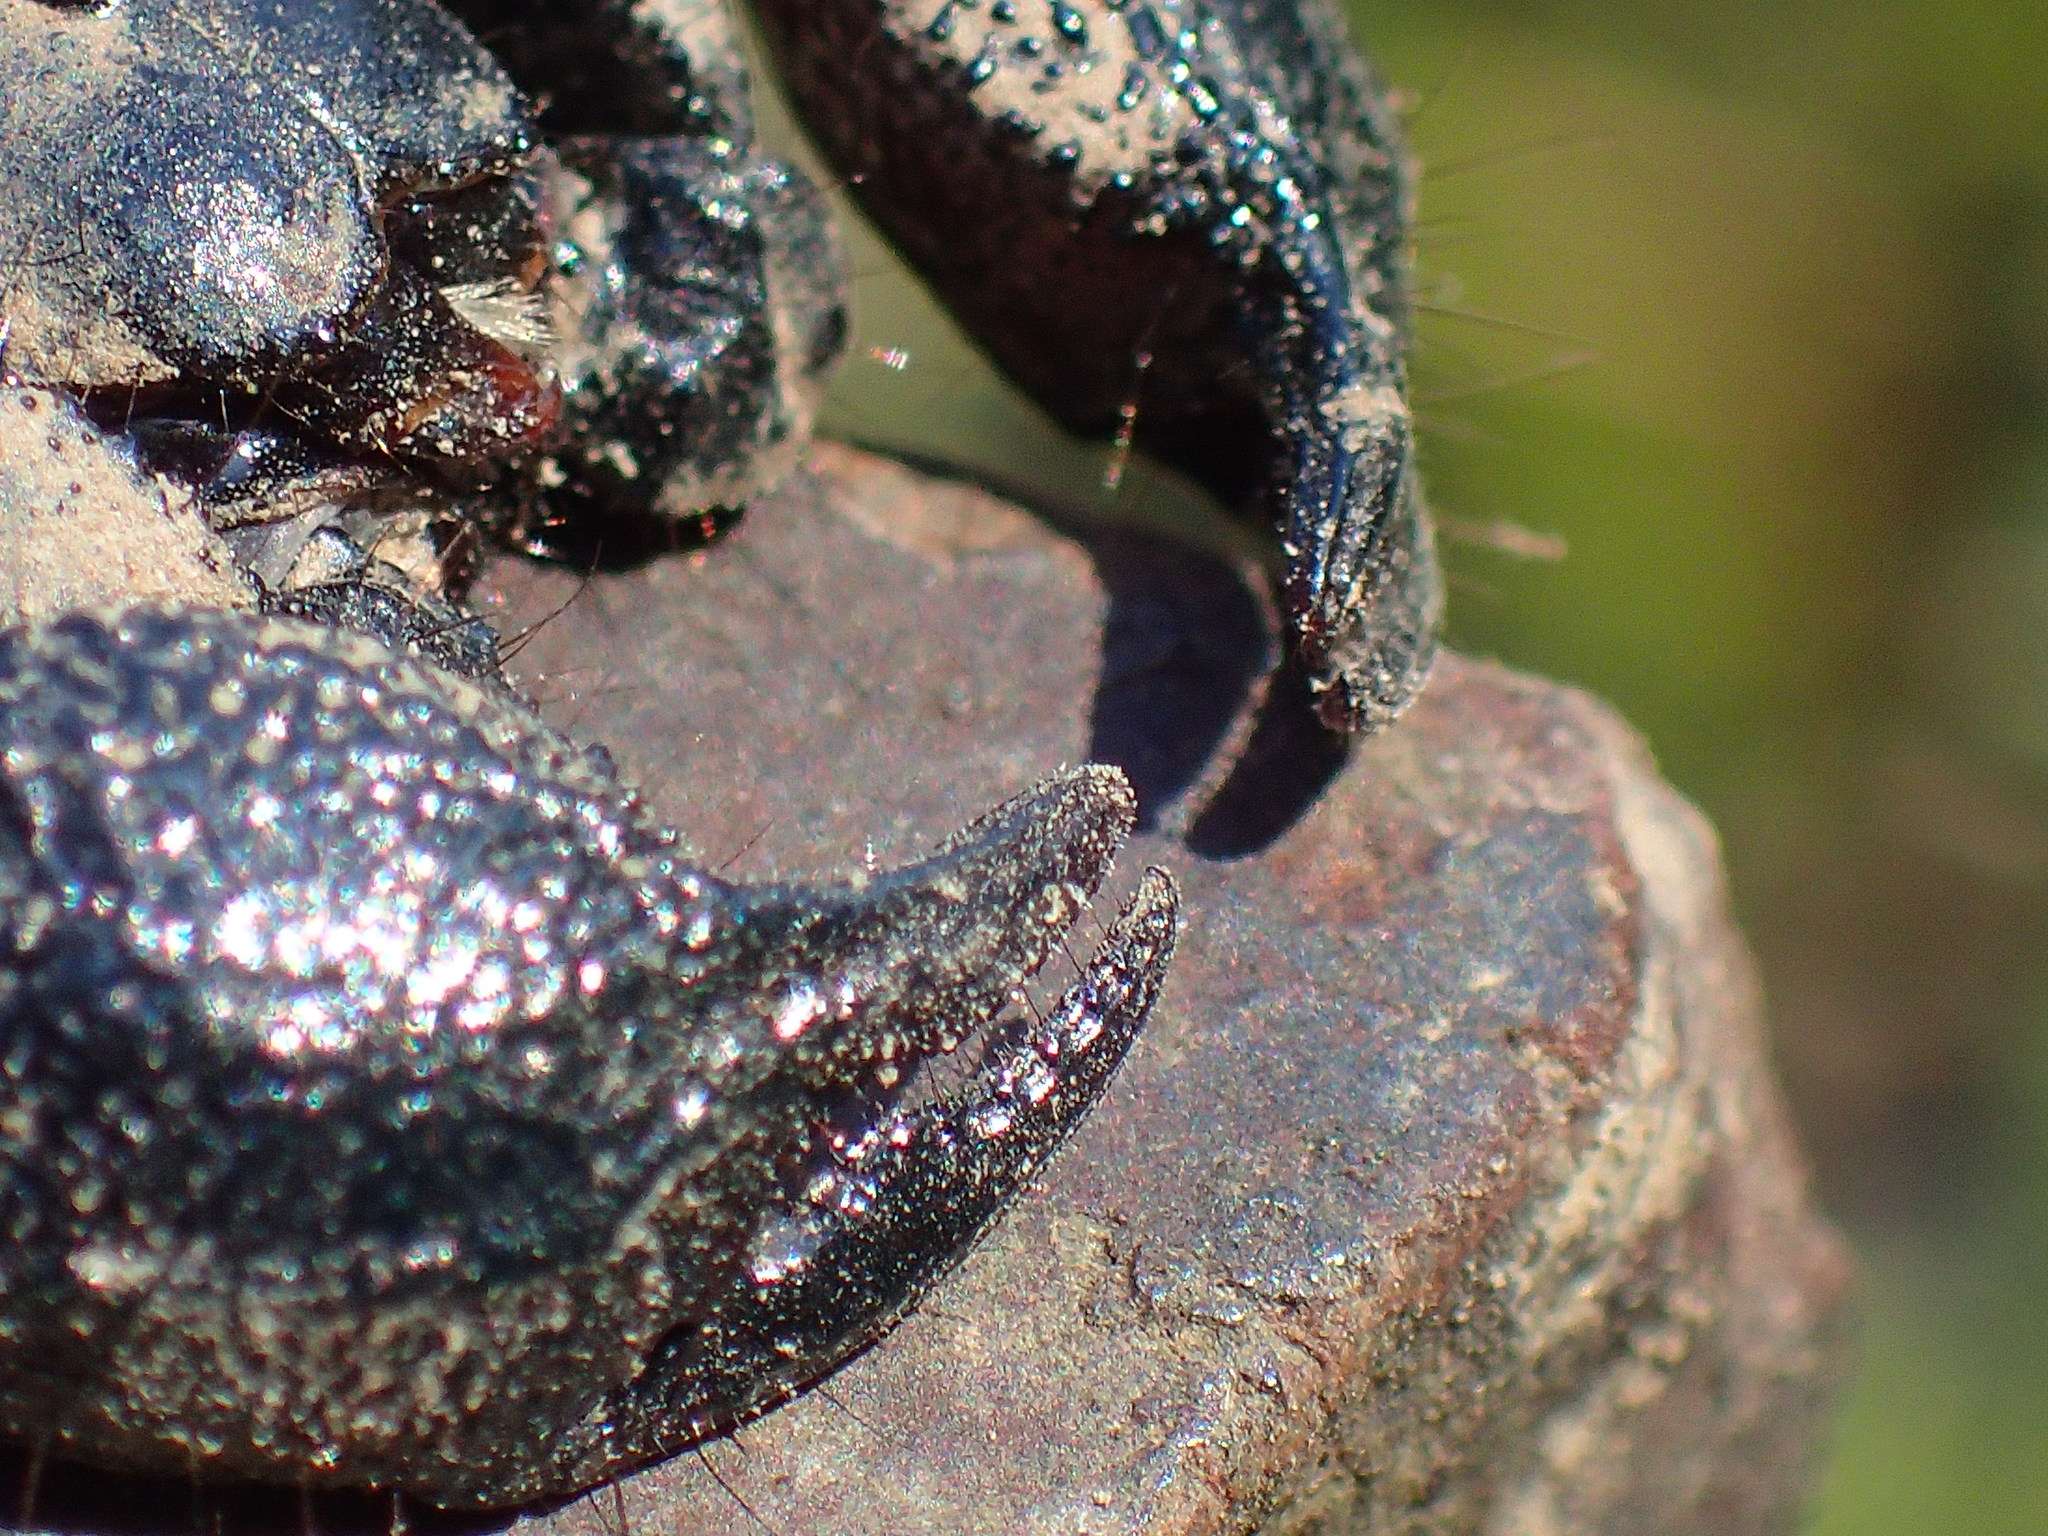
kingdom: Animalia
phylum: Arthropoda
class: Arachnida
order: Scorpiones
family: Hormuridae
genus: Cheloctonus
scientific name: Cheloctonus anthracinus
